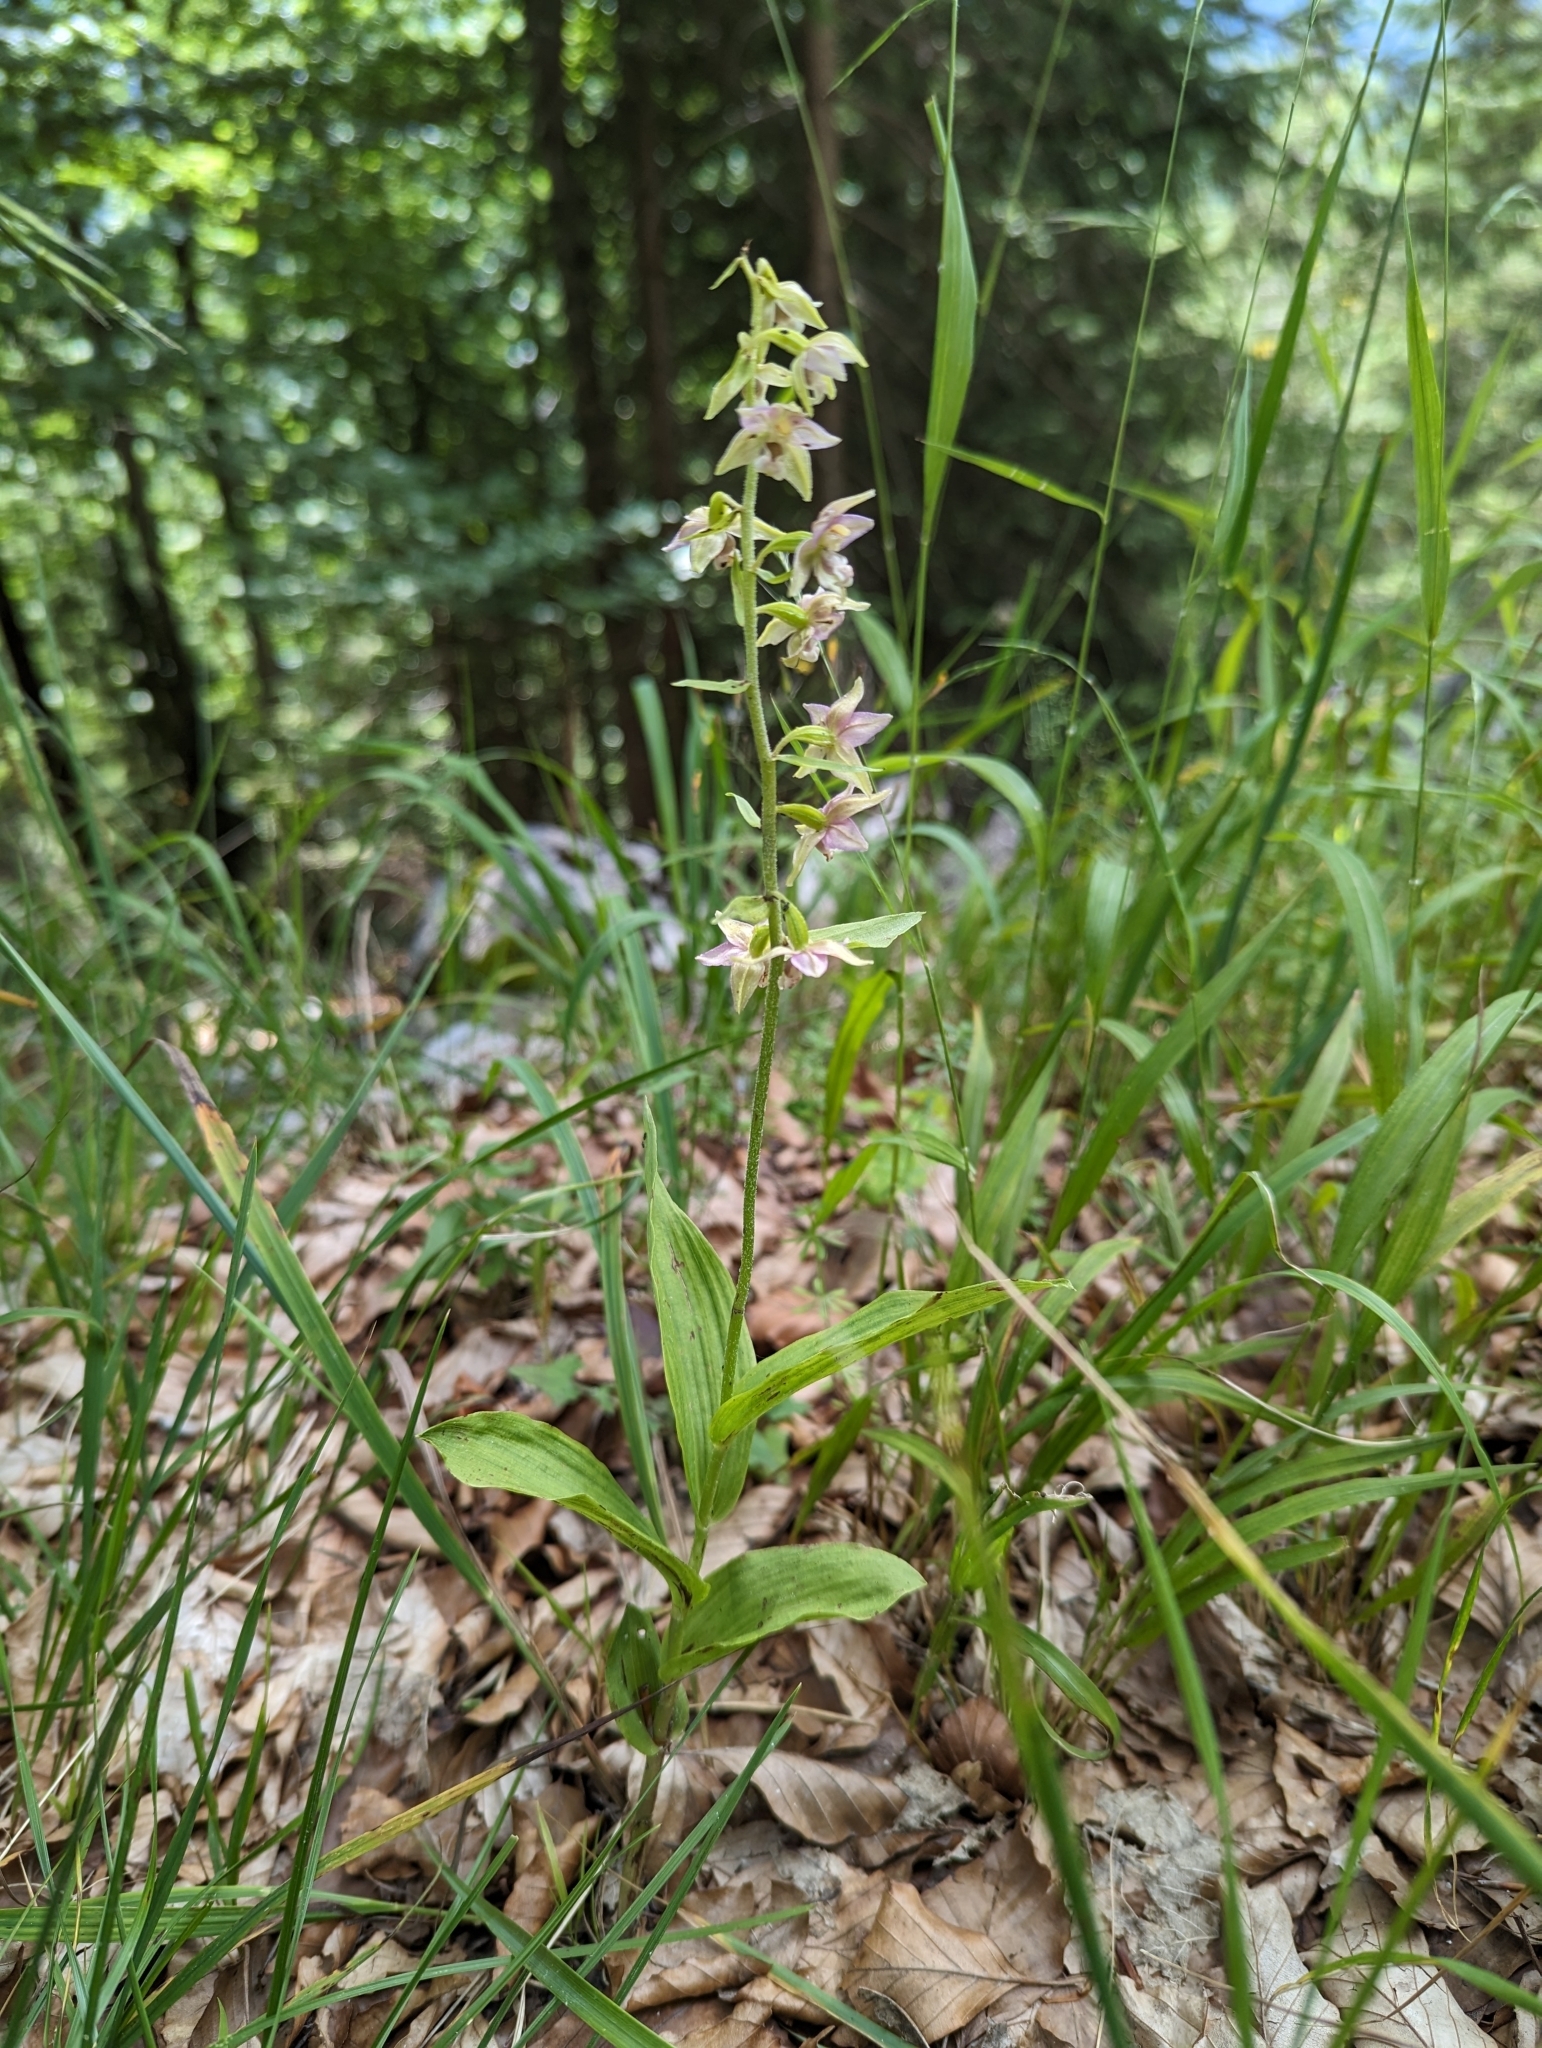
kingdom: Plantae
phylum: Tracheophyta
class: Liliopsida
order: Asparagales
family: Orchidaceae
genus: Epipactis
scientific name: Epipactis helleborine
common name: Broad-leaved helleborine
